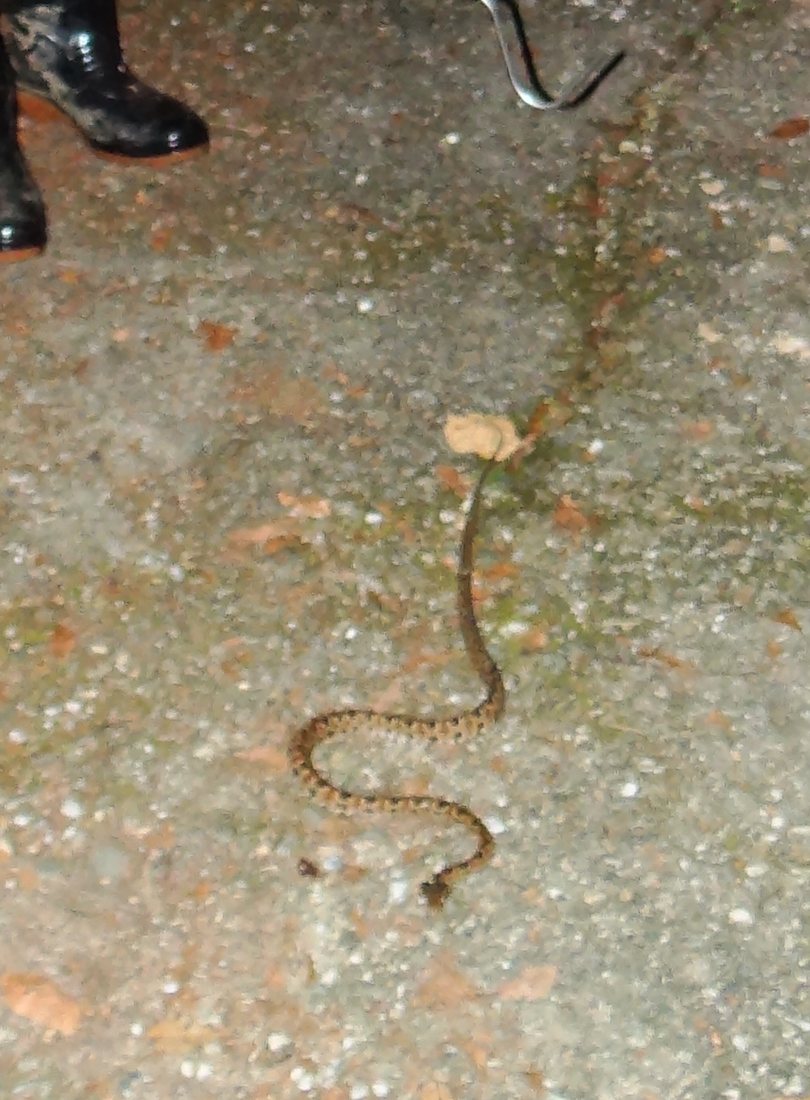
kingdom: Animalia
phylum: Chordata
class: Squamata
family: Viperidae
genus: Protobothrops
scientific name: Protobothrops mucrosquamatus
